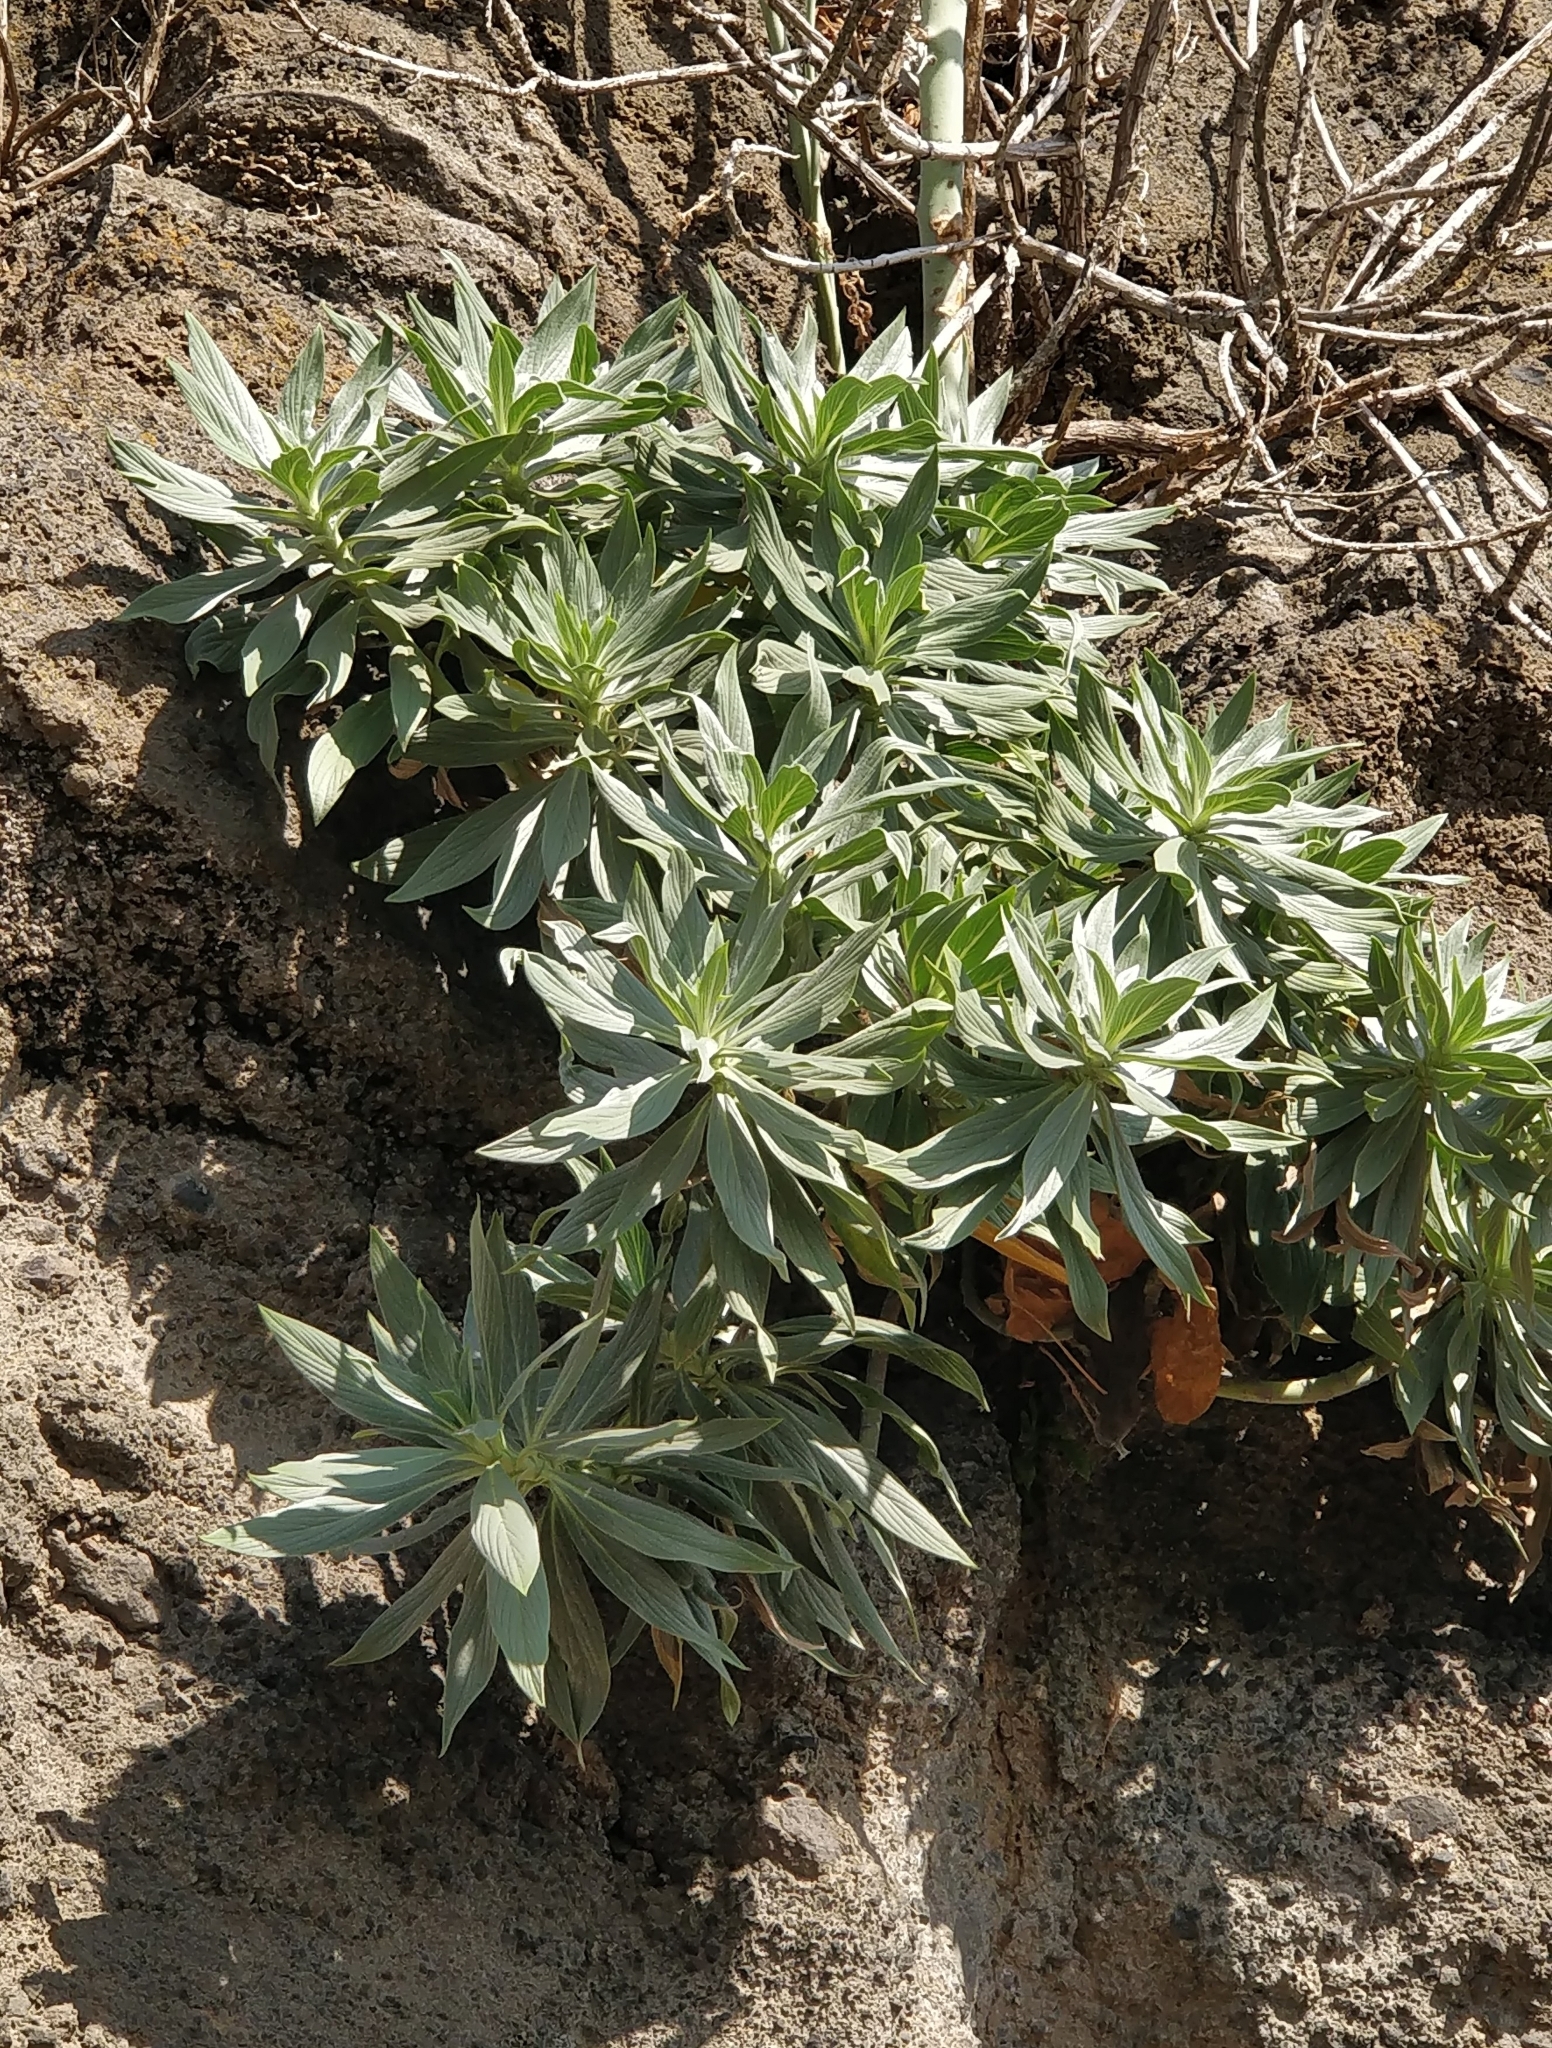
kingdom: Plantae
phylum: Tracheophyta
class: Magnoliopsida
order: Boraginales
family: Boraginaceae
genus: Echium
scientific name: Echium nervosum
